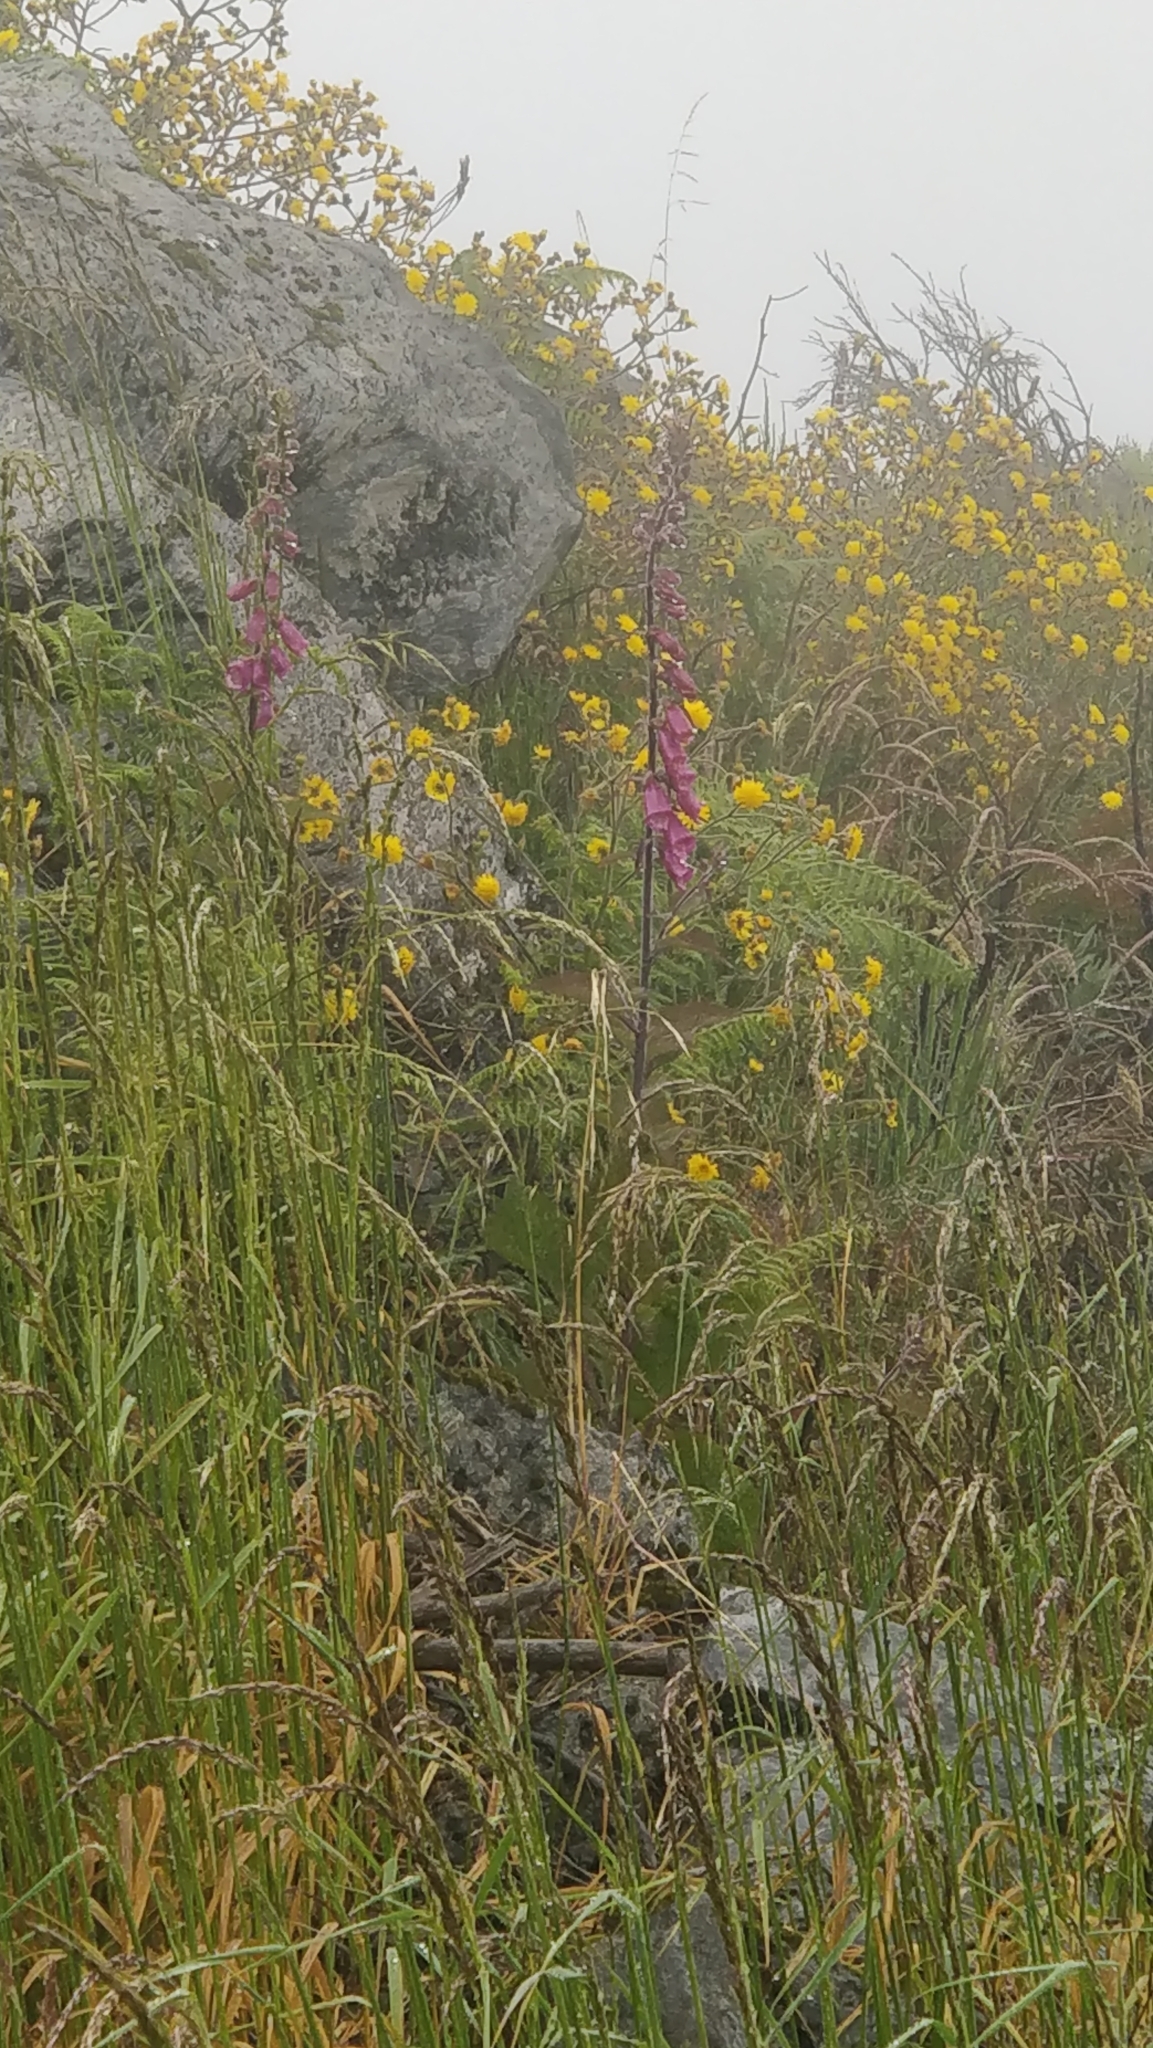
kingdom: Plantae
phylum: Tracheophyta
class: Magnoliopsida
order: Lamiales
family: Plantaginaceae
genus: Digitalis
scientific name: Digitalis purpurea
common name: Foxglove
